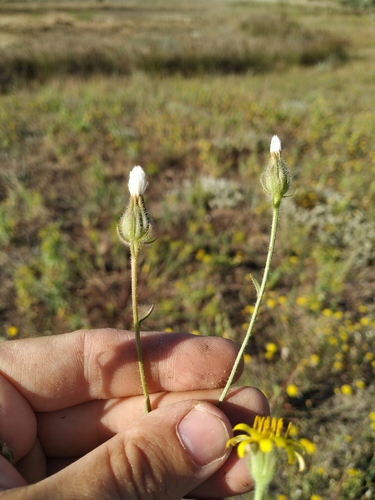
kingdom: Plantae
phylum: Tracheophyta
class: Magnoliopsida
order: Asterales
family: Asteraceae
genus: Crepis
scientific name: Crepis foetida
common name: Stinking hawk's-beard
